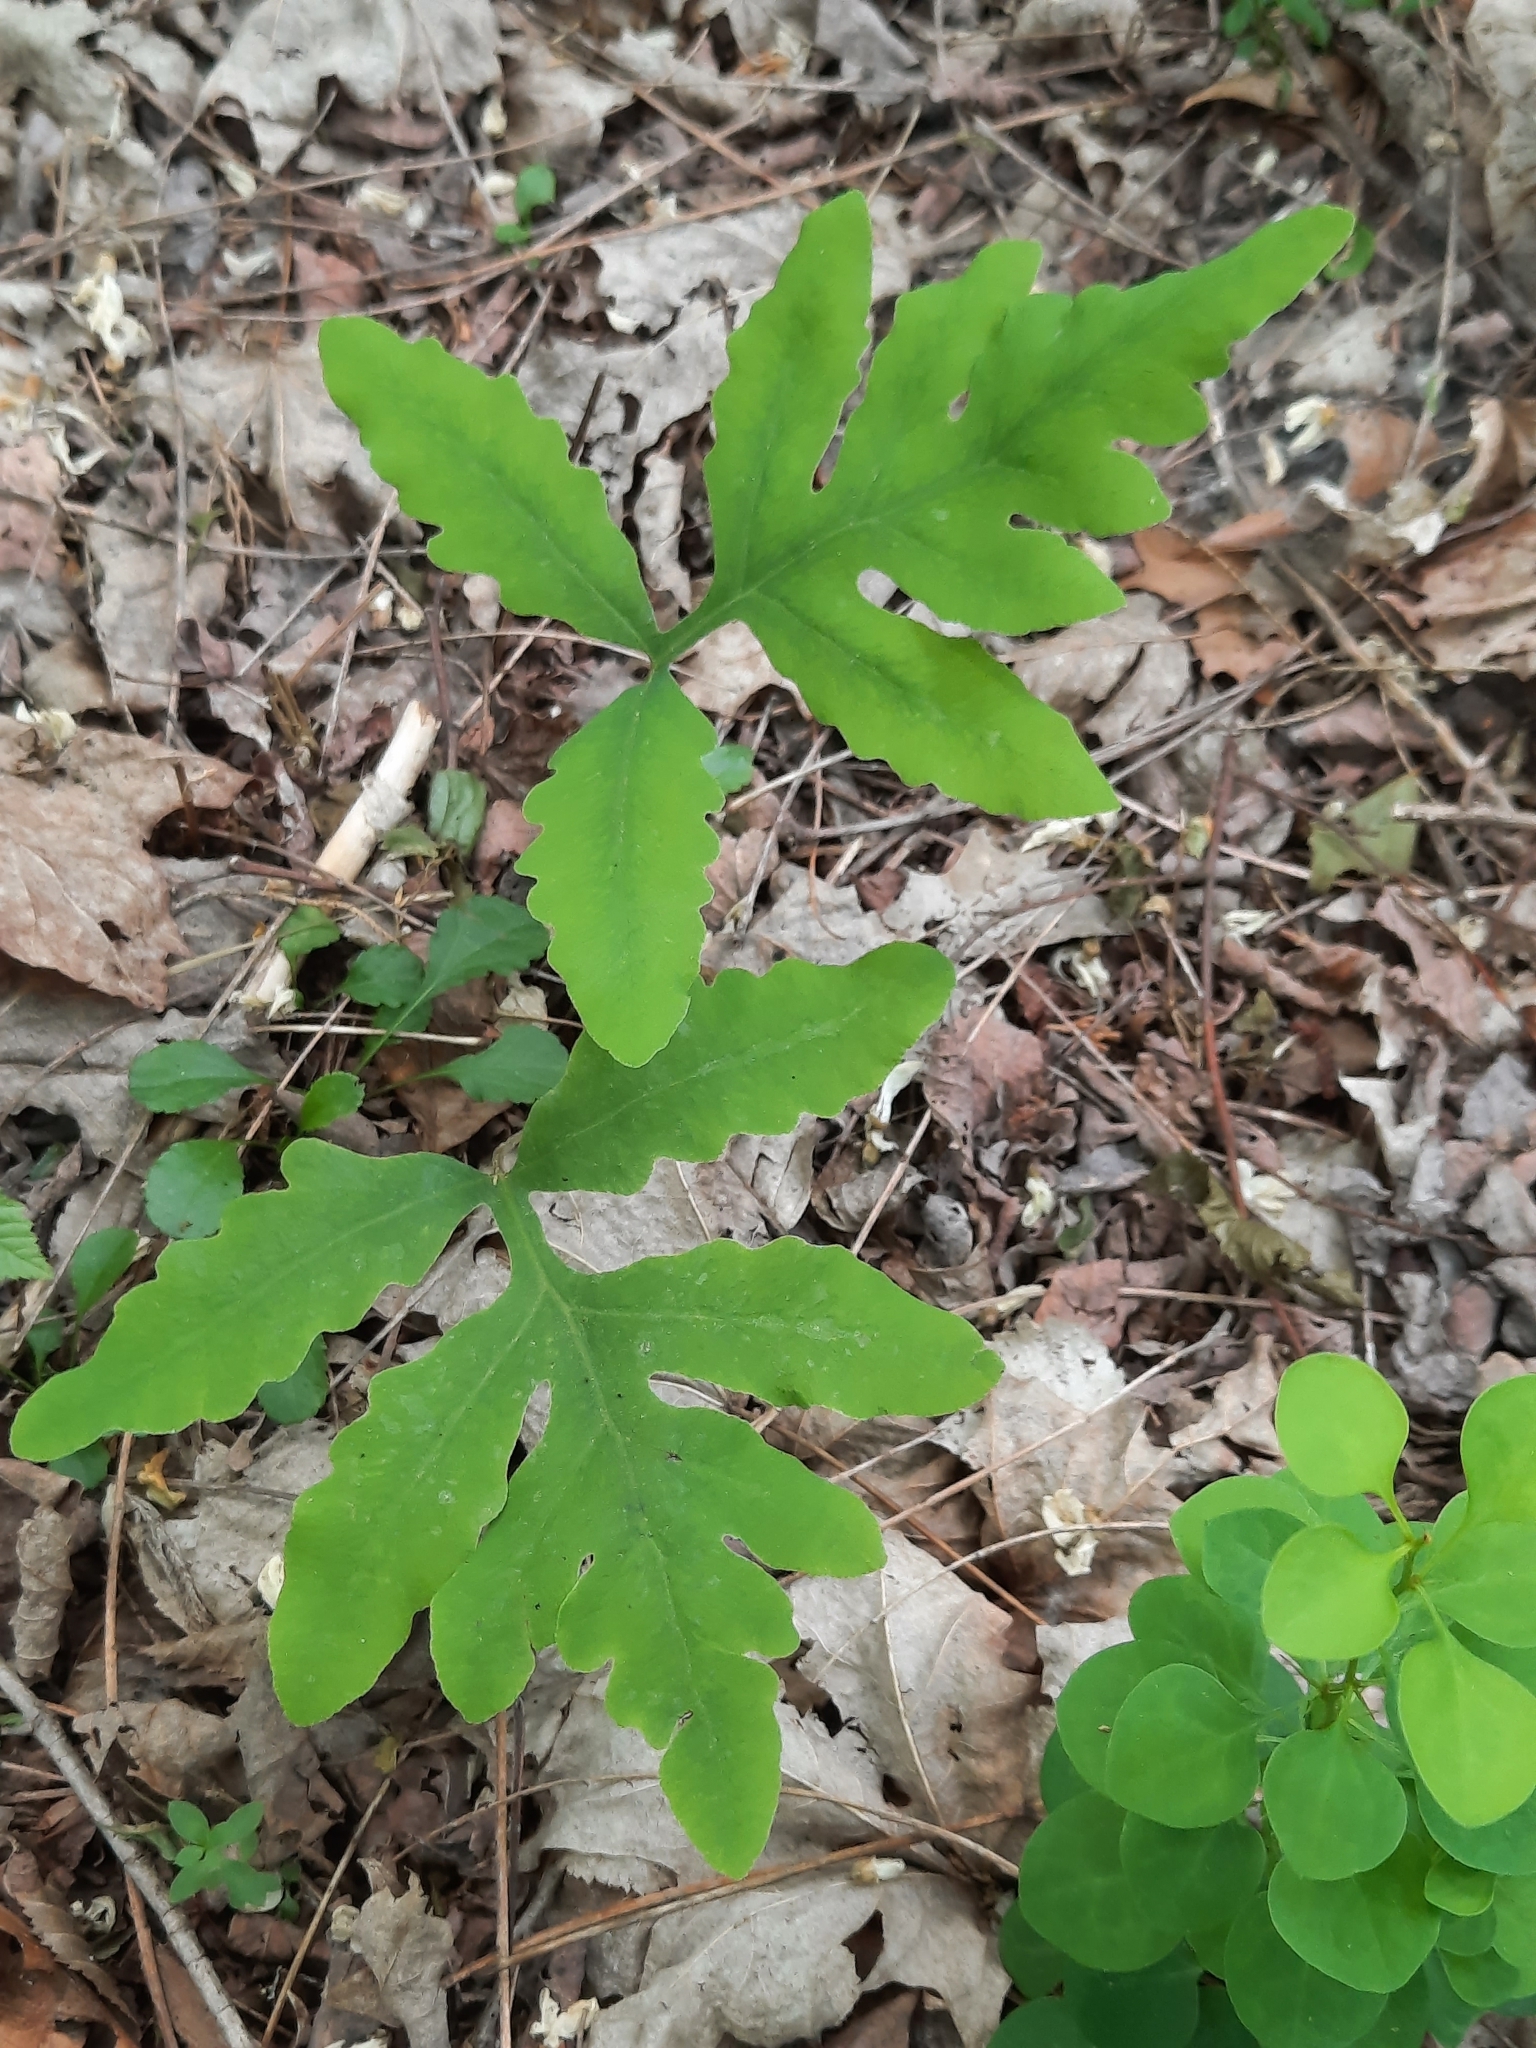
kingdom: Plantae
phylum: Tracheophyta
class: Polypodiopsida
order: Polypodiales
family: Onocleaceae
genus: Onoclea
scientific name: Onoclea sensibilis
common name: Sensitive fern
